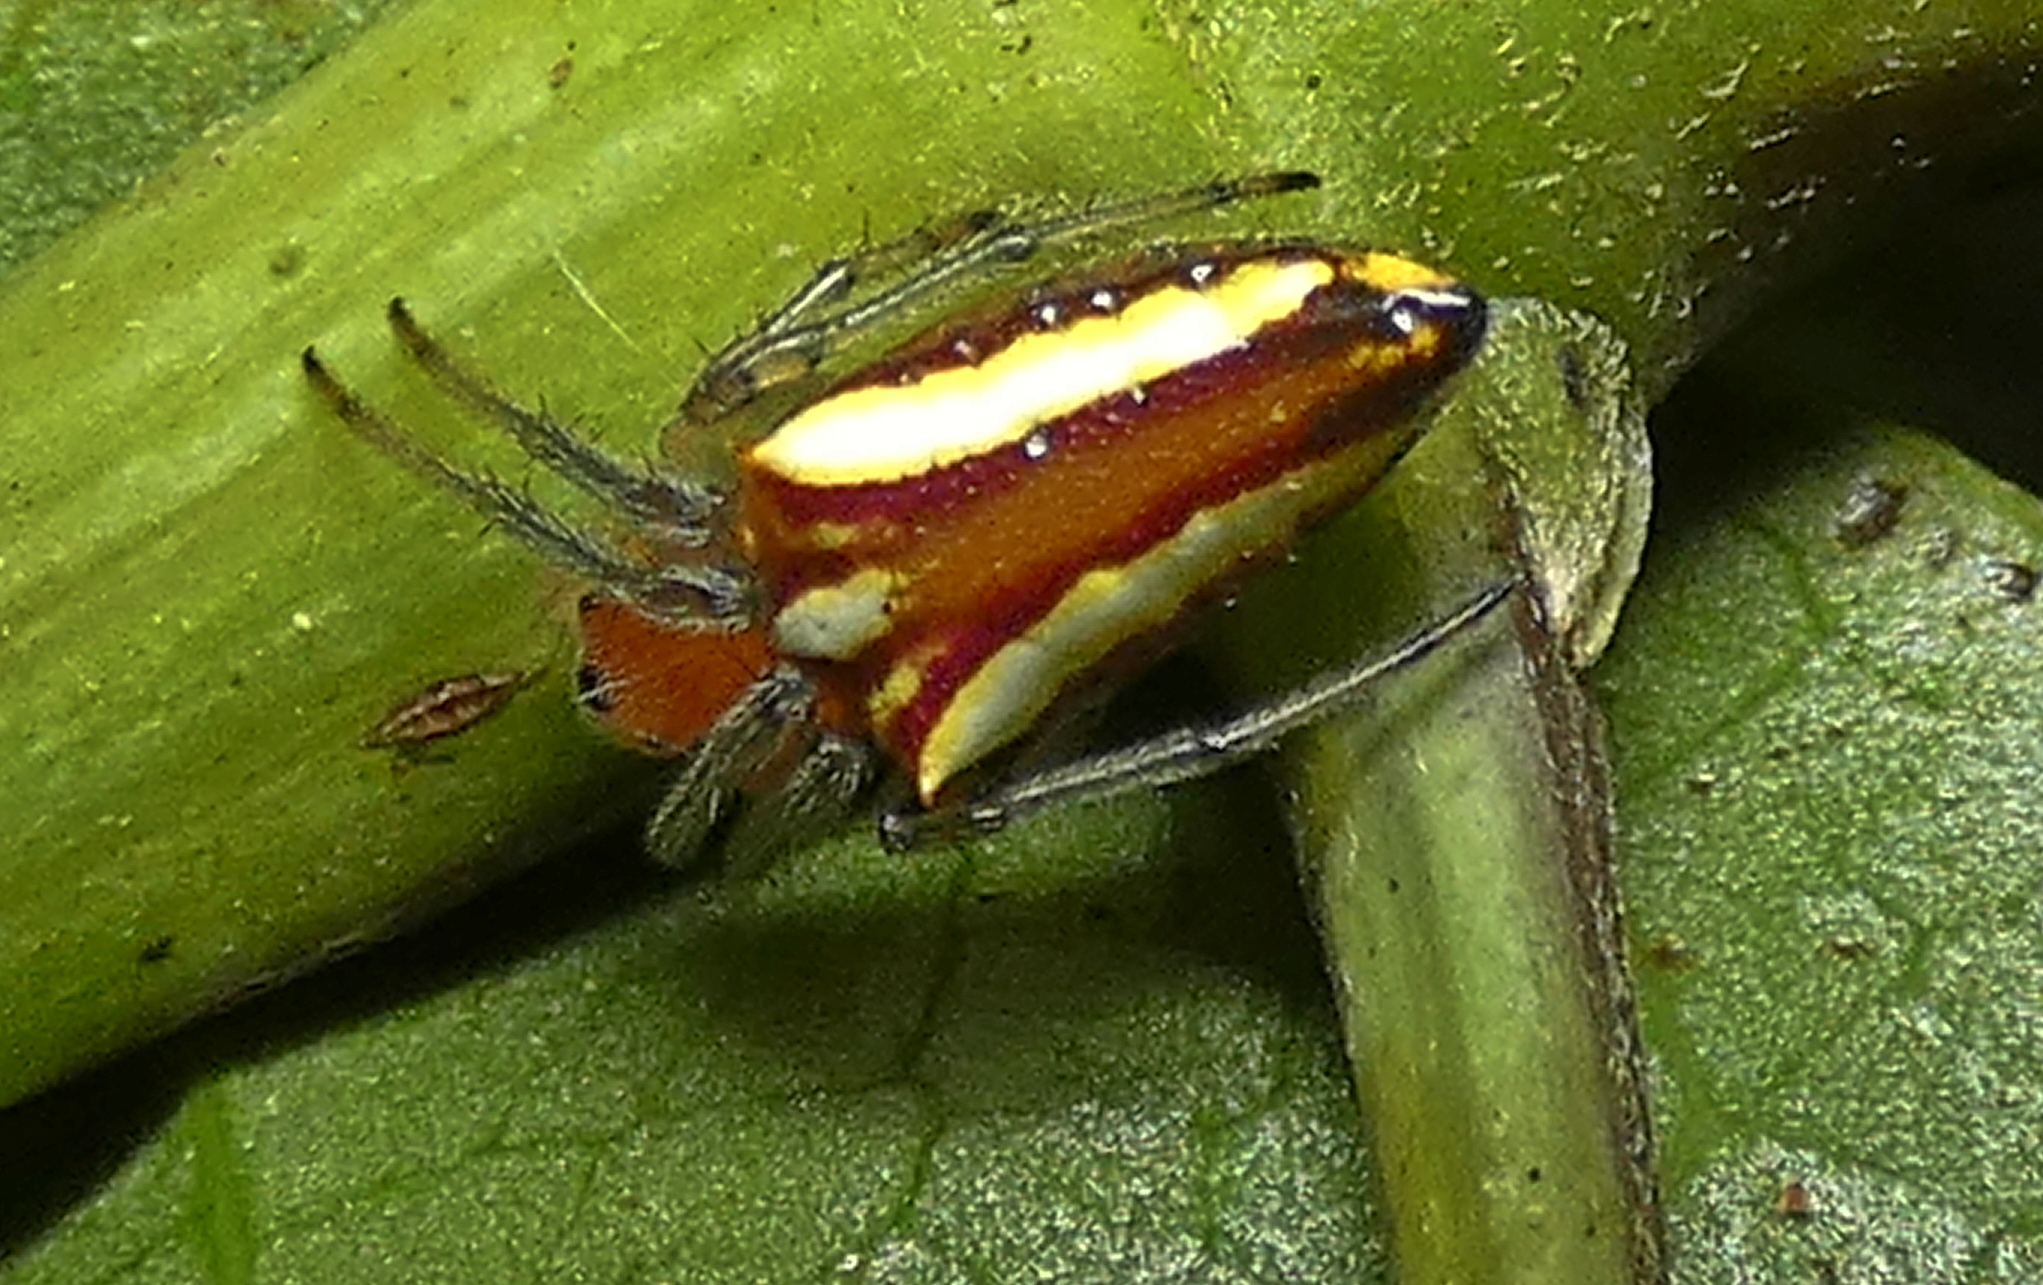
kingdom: Animalia
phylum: Arthropoda
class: Arachnida
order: Araneae
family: Araneidae
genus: Alpaida
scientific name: Alpaida bicornuta
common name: Orb weavers
